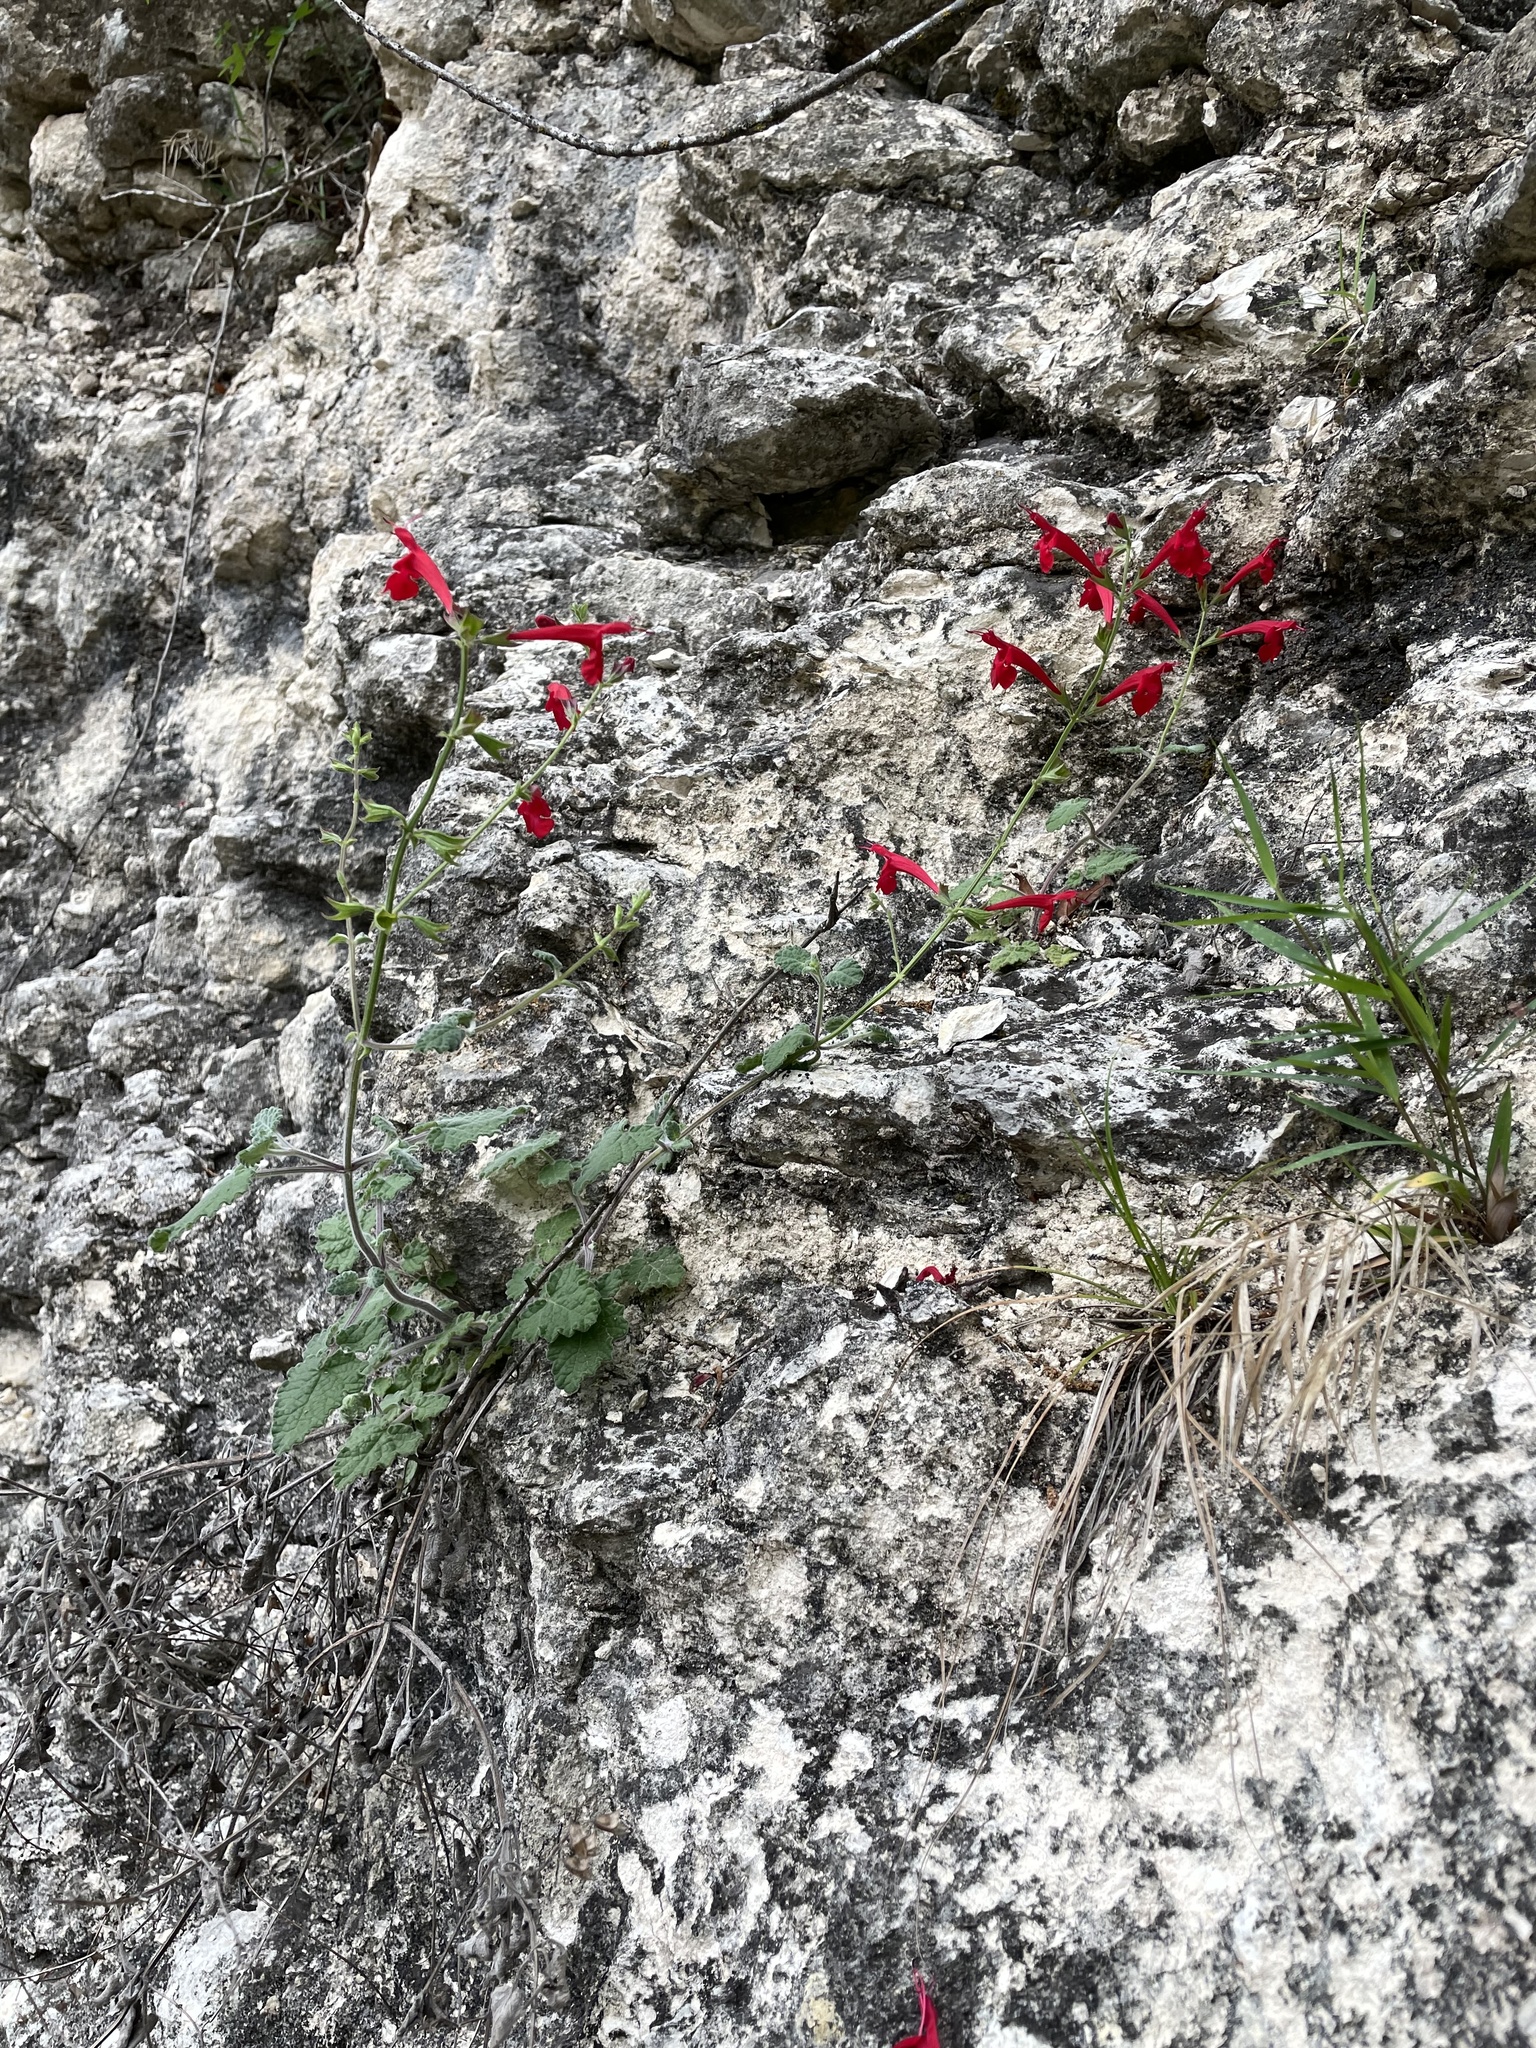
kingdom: Plantae
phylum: Tracheophyta
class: Magnoliopsida
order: Lamiales
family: Lamiaceae
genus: Salvia
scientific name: Salvia roemeriana
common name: Cedar sage
